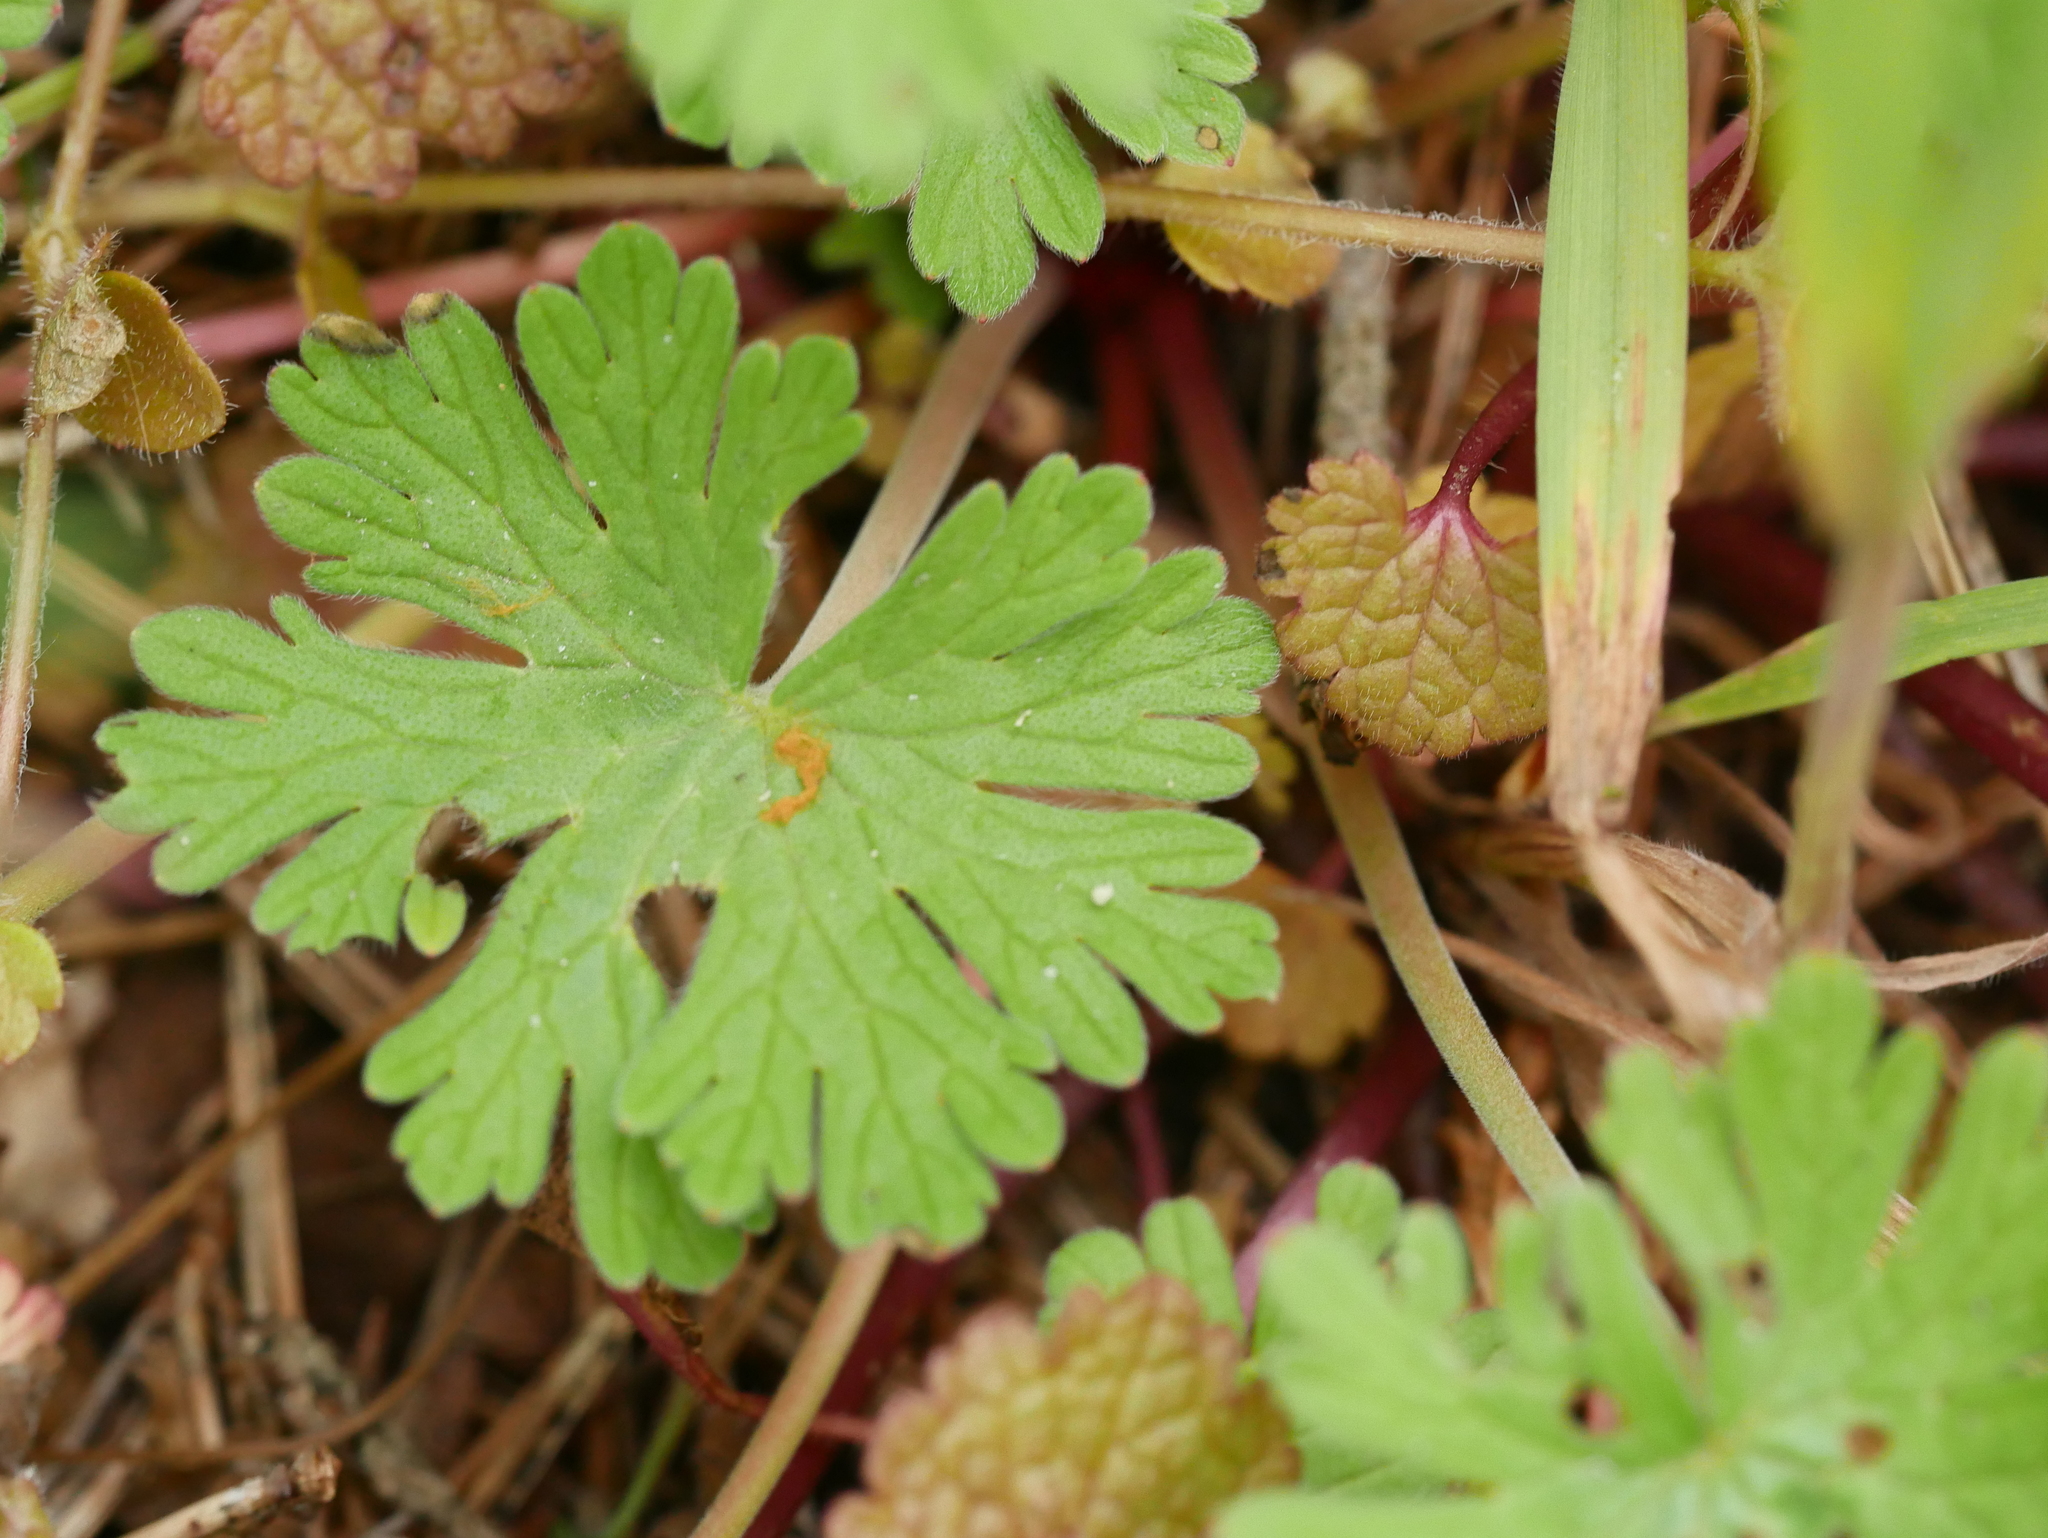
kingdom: Plantae
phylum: Tracheophyta
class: Magnoliopsida
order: Geraniales
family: Geraniaceae
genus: Geranium
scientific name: Geranium molle
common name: Dove's-foot crane's-bill
